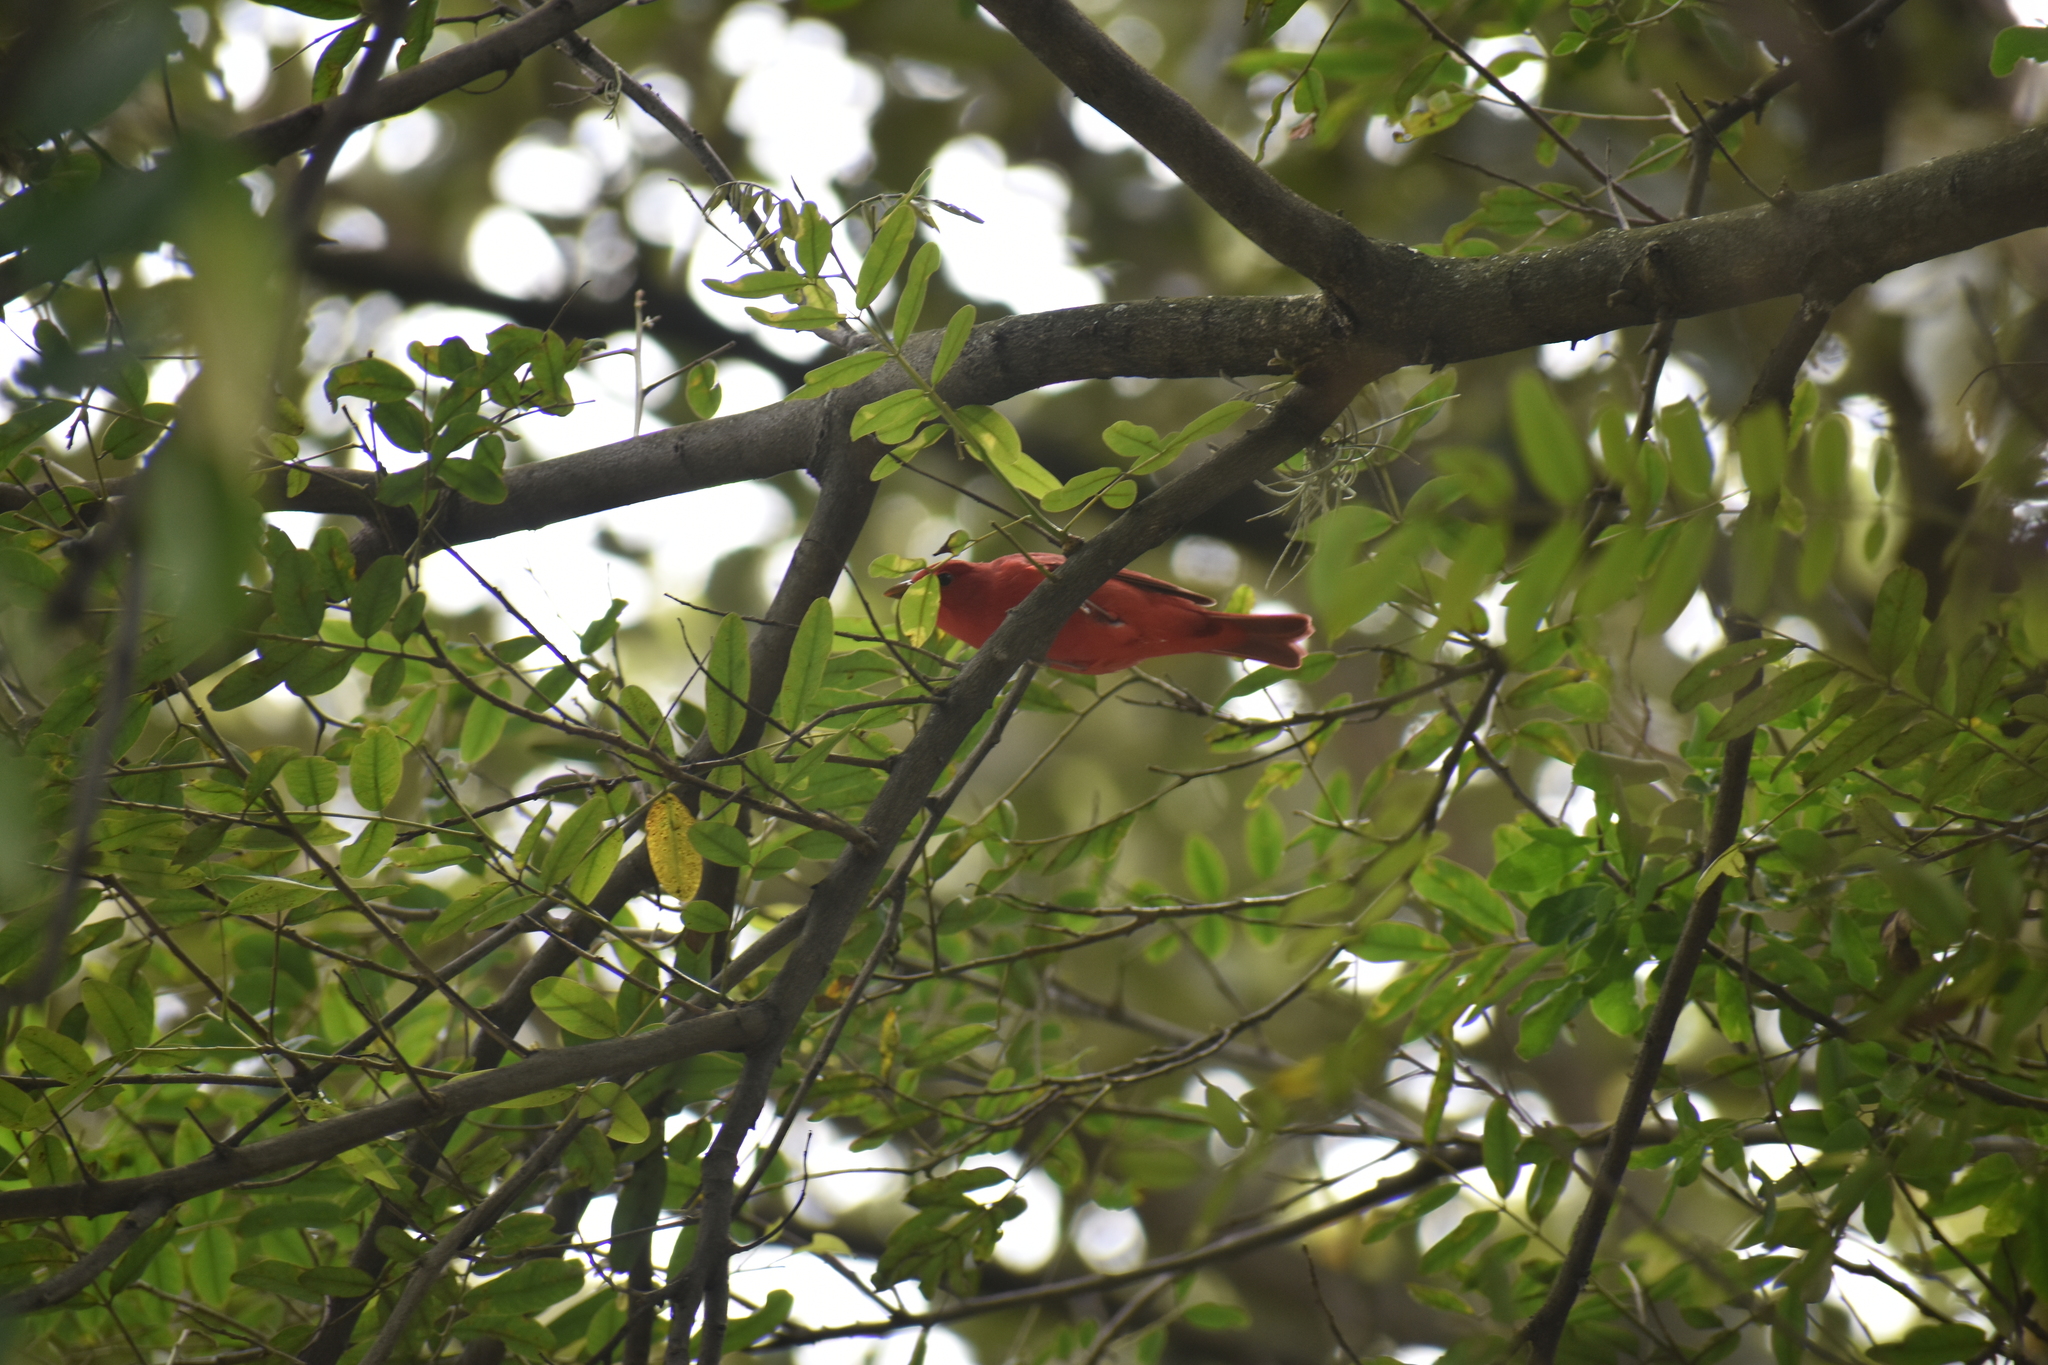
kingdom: Animalia
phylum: Chordata
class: Aves
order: Passeriformes
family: Cardinalidae
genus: Piranga
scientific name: Piranga rubra
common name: Summer tanager
